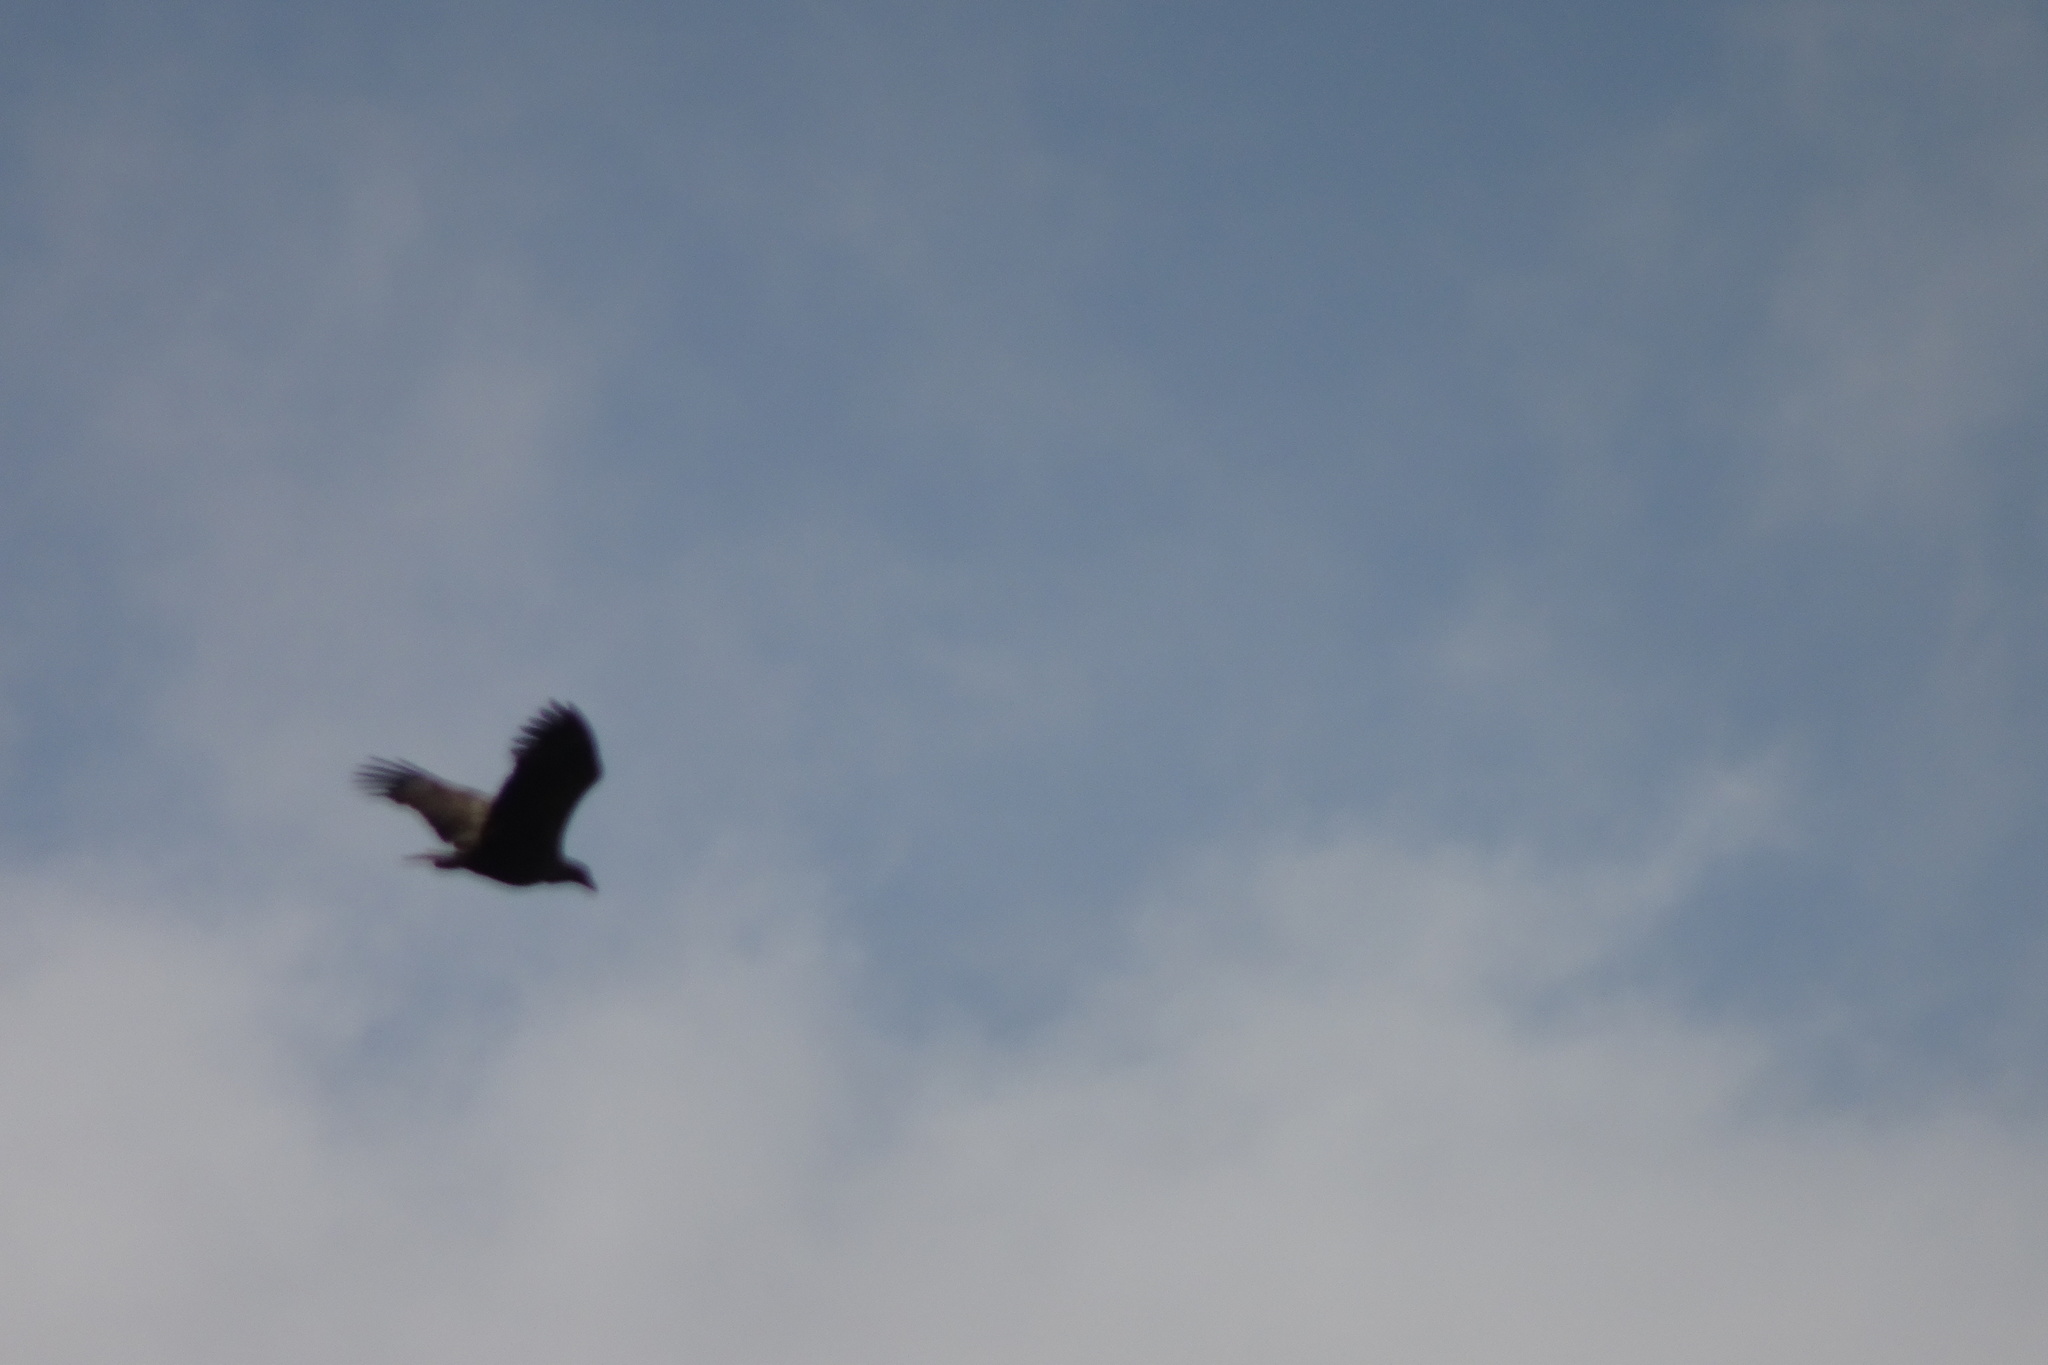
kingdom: Animalia
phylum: Chordata
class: Aves
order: Accipitriformes
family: Accipitridae
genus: Haliaeetus
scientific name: Haliaeetus albicilla
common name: White-tailed eagle
